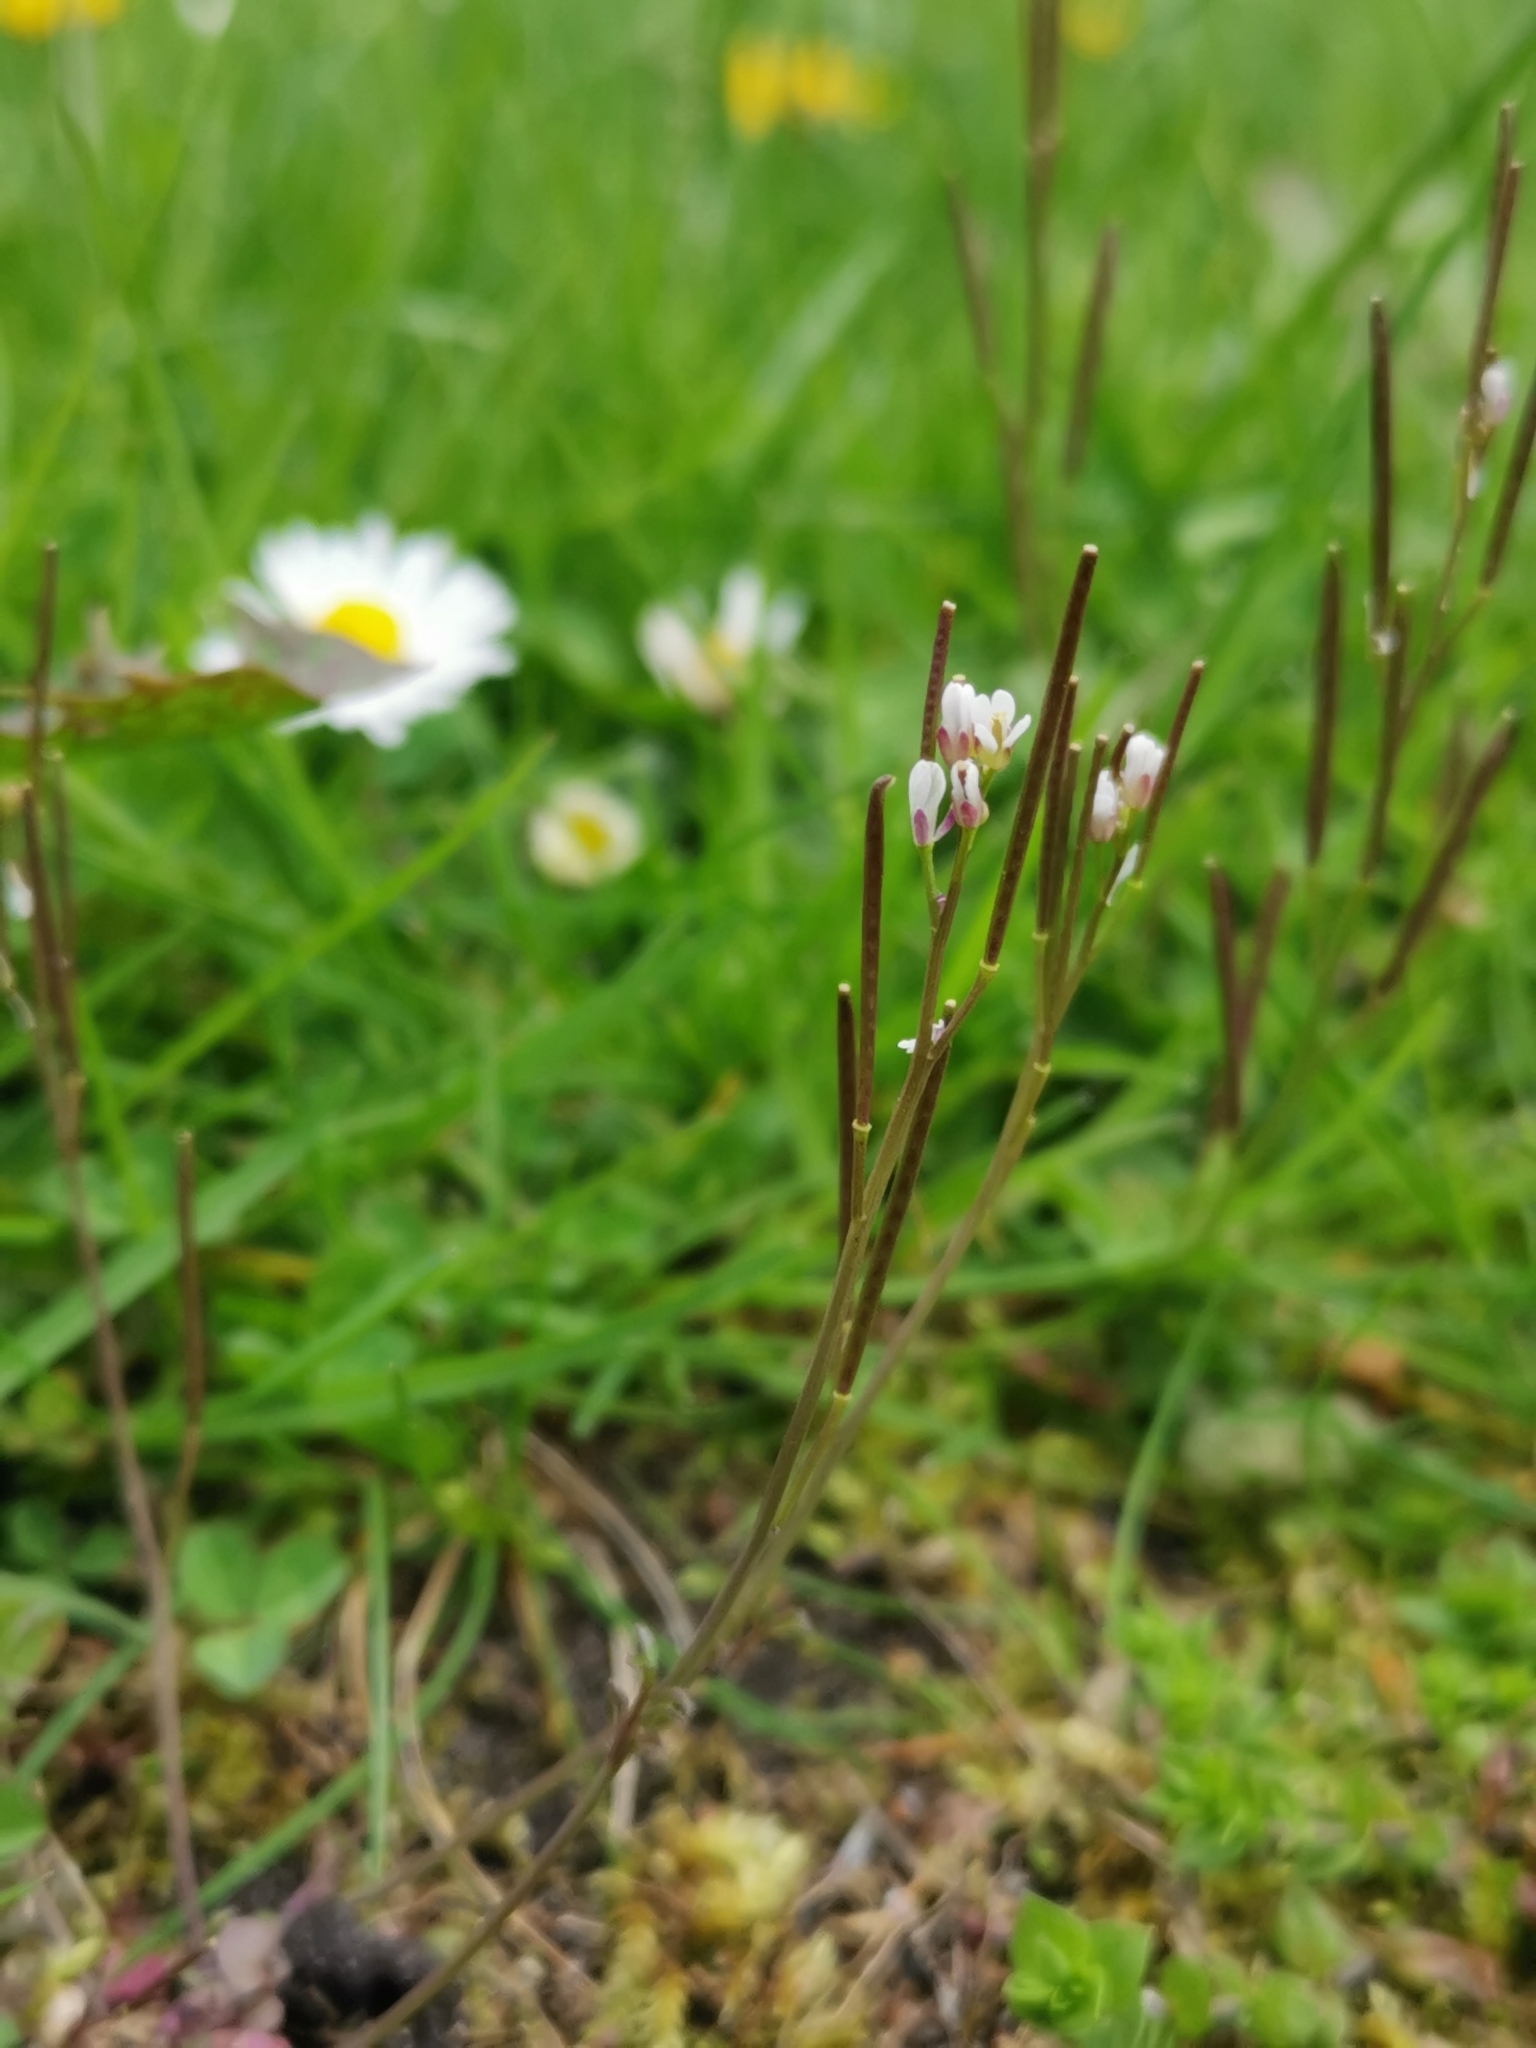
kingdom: Plantae
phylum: Tracheophyta
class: Magnoliopsida
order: Brassicales
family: Brassicaceae
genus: Cardamine
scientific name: Cardamine hirsuta
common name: Hairy bittercress
